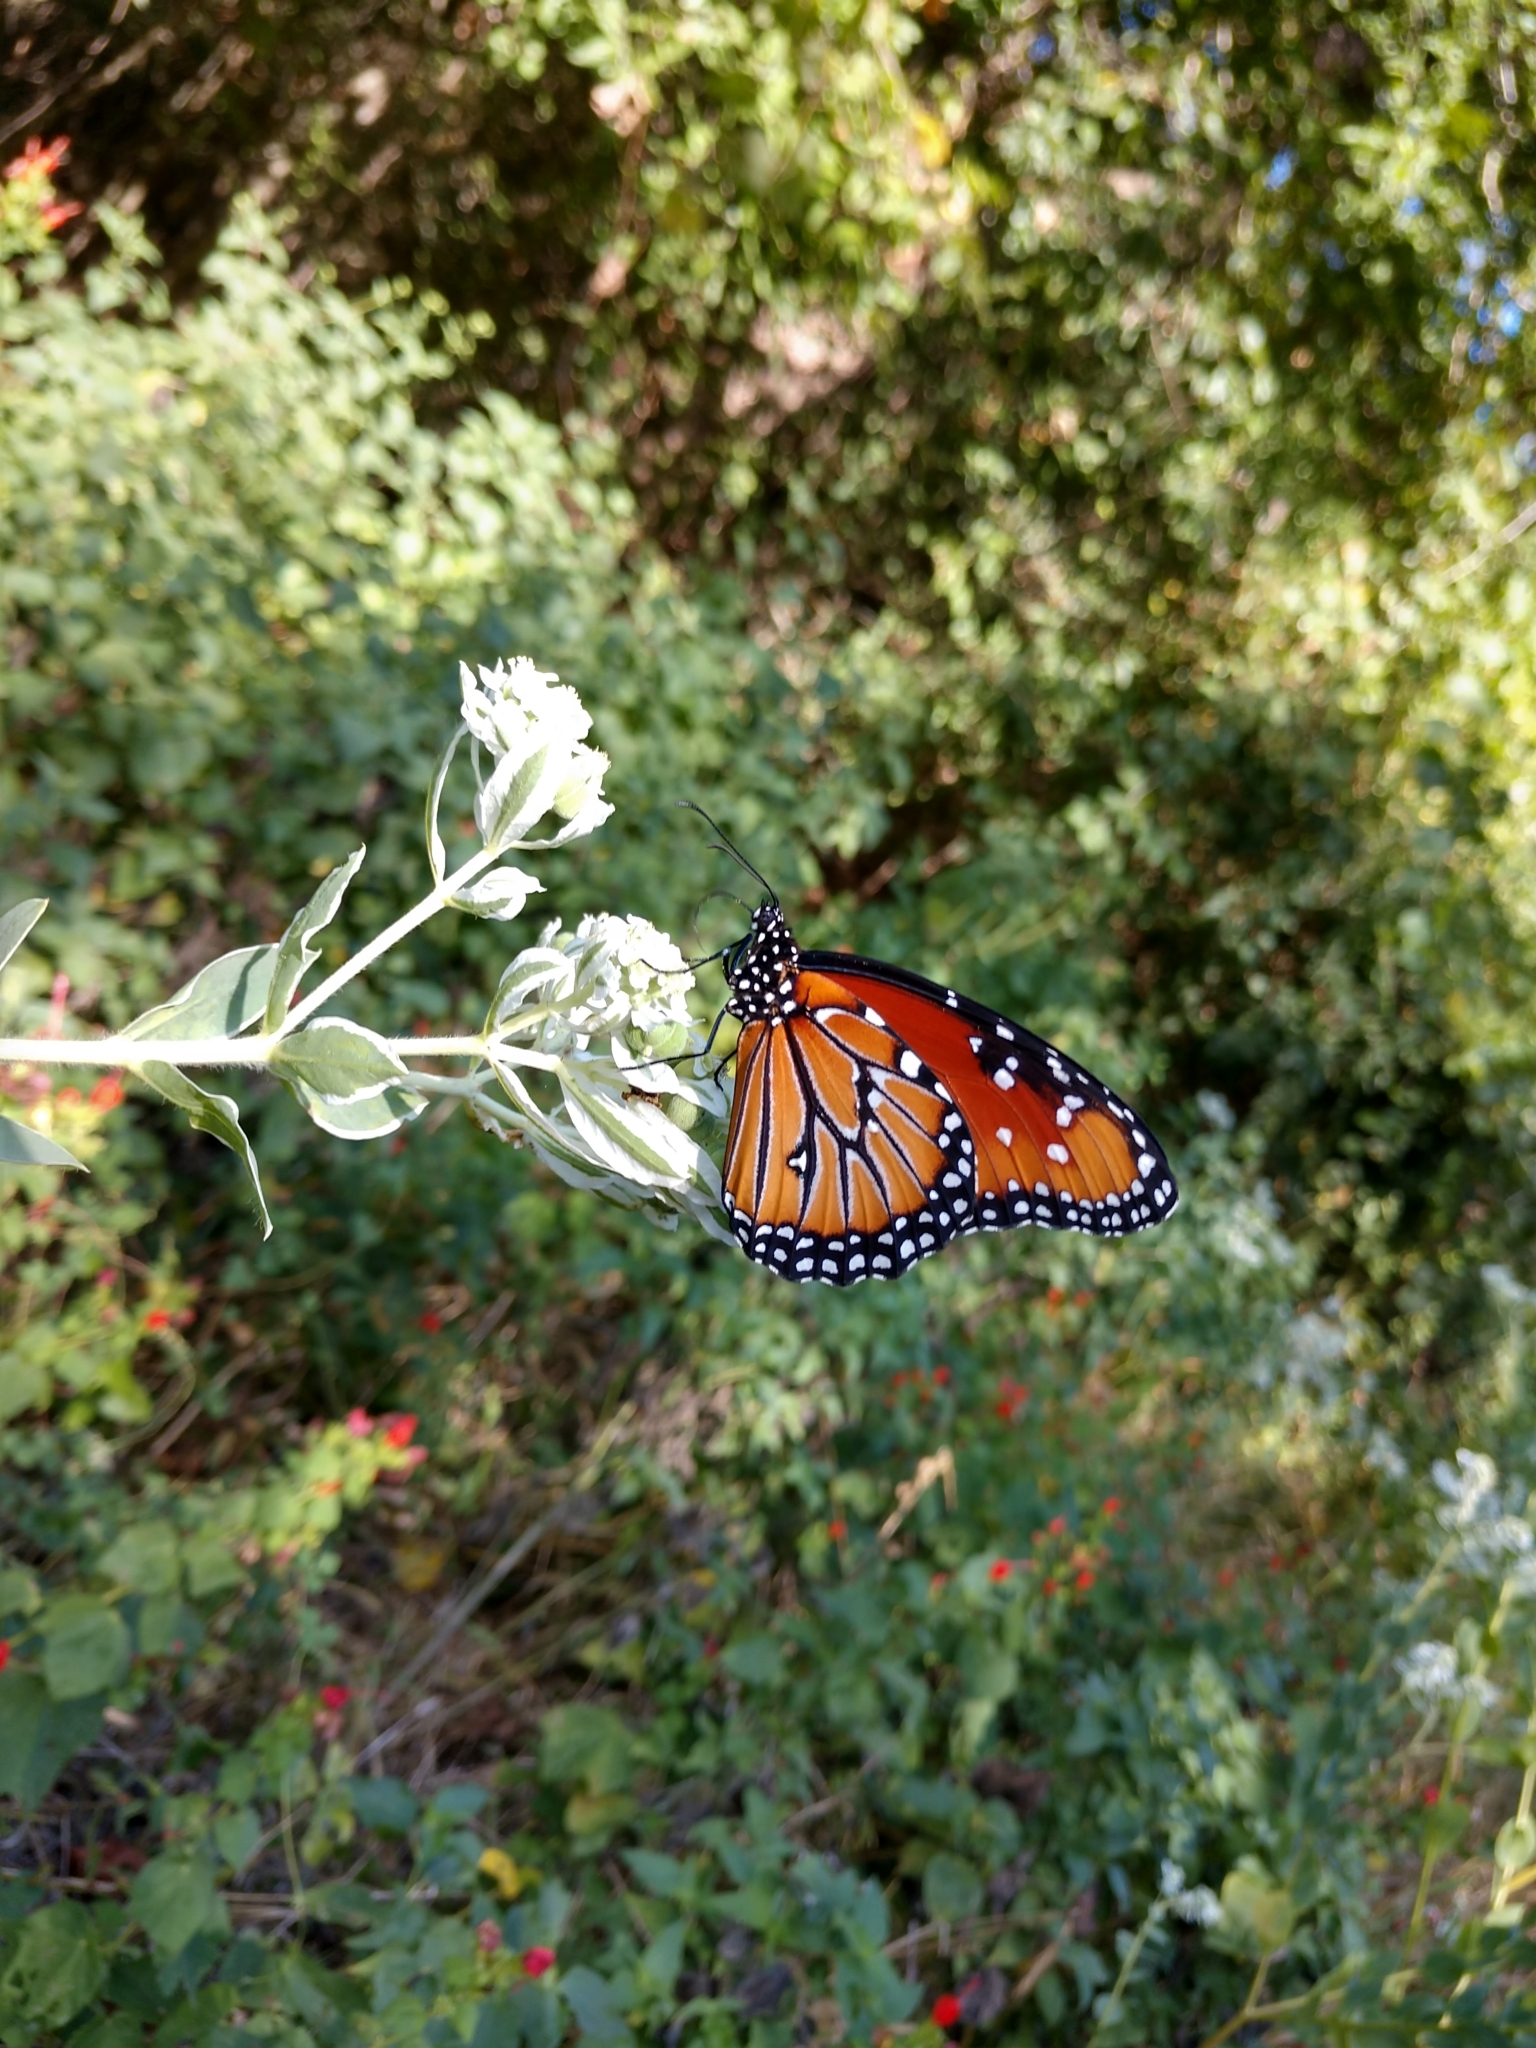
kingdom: Animalia
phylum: Arthropoda
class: Insecta
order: Lepidoptera
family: Nymphalidae
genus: Danaus
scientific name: Danaus gilippus
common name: Queen
